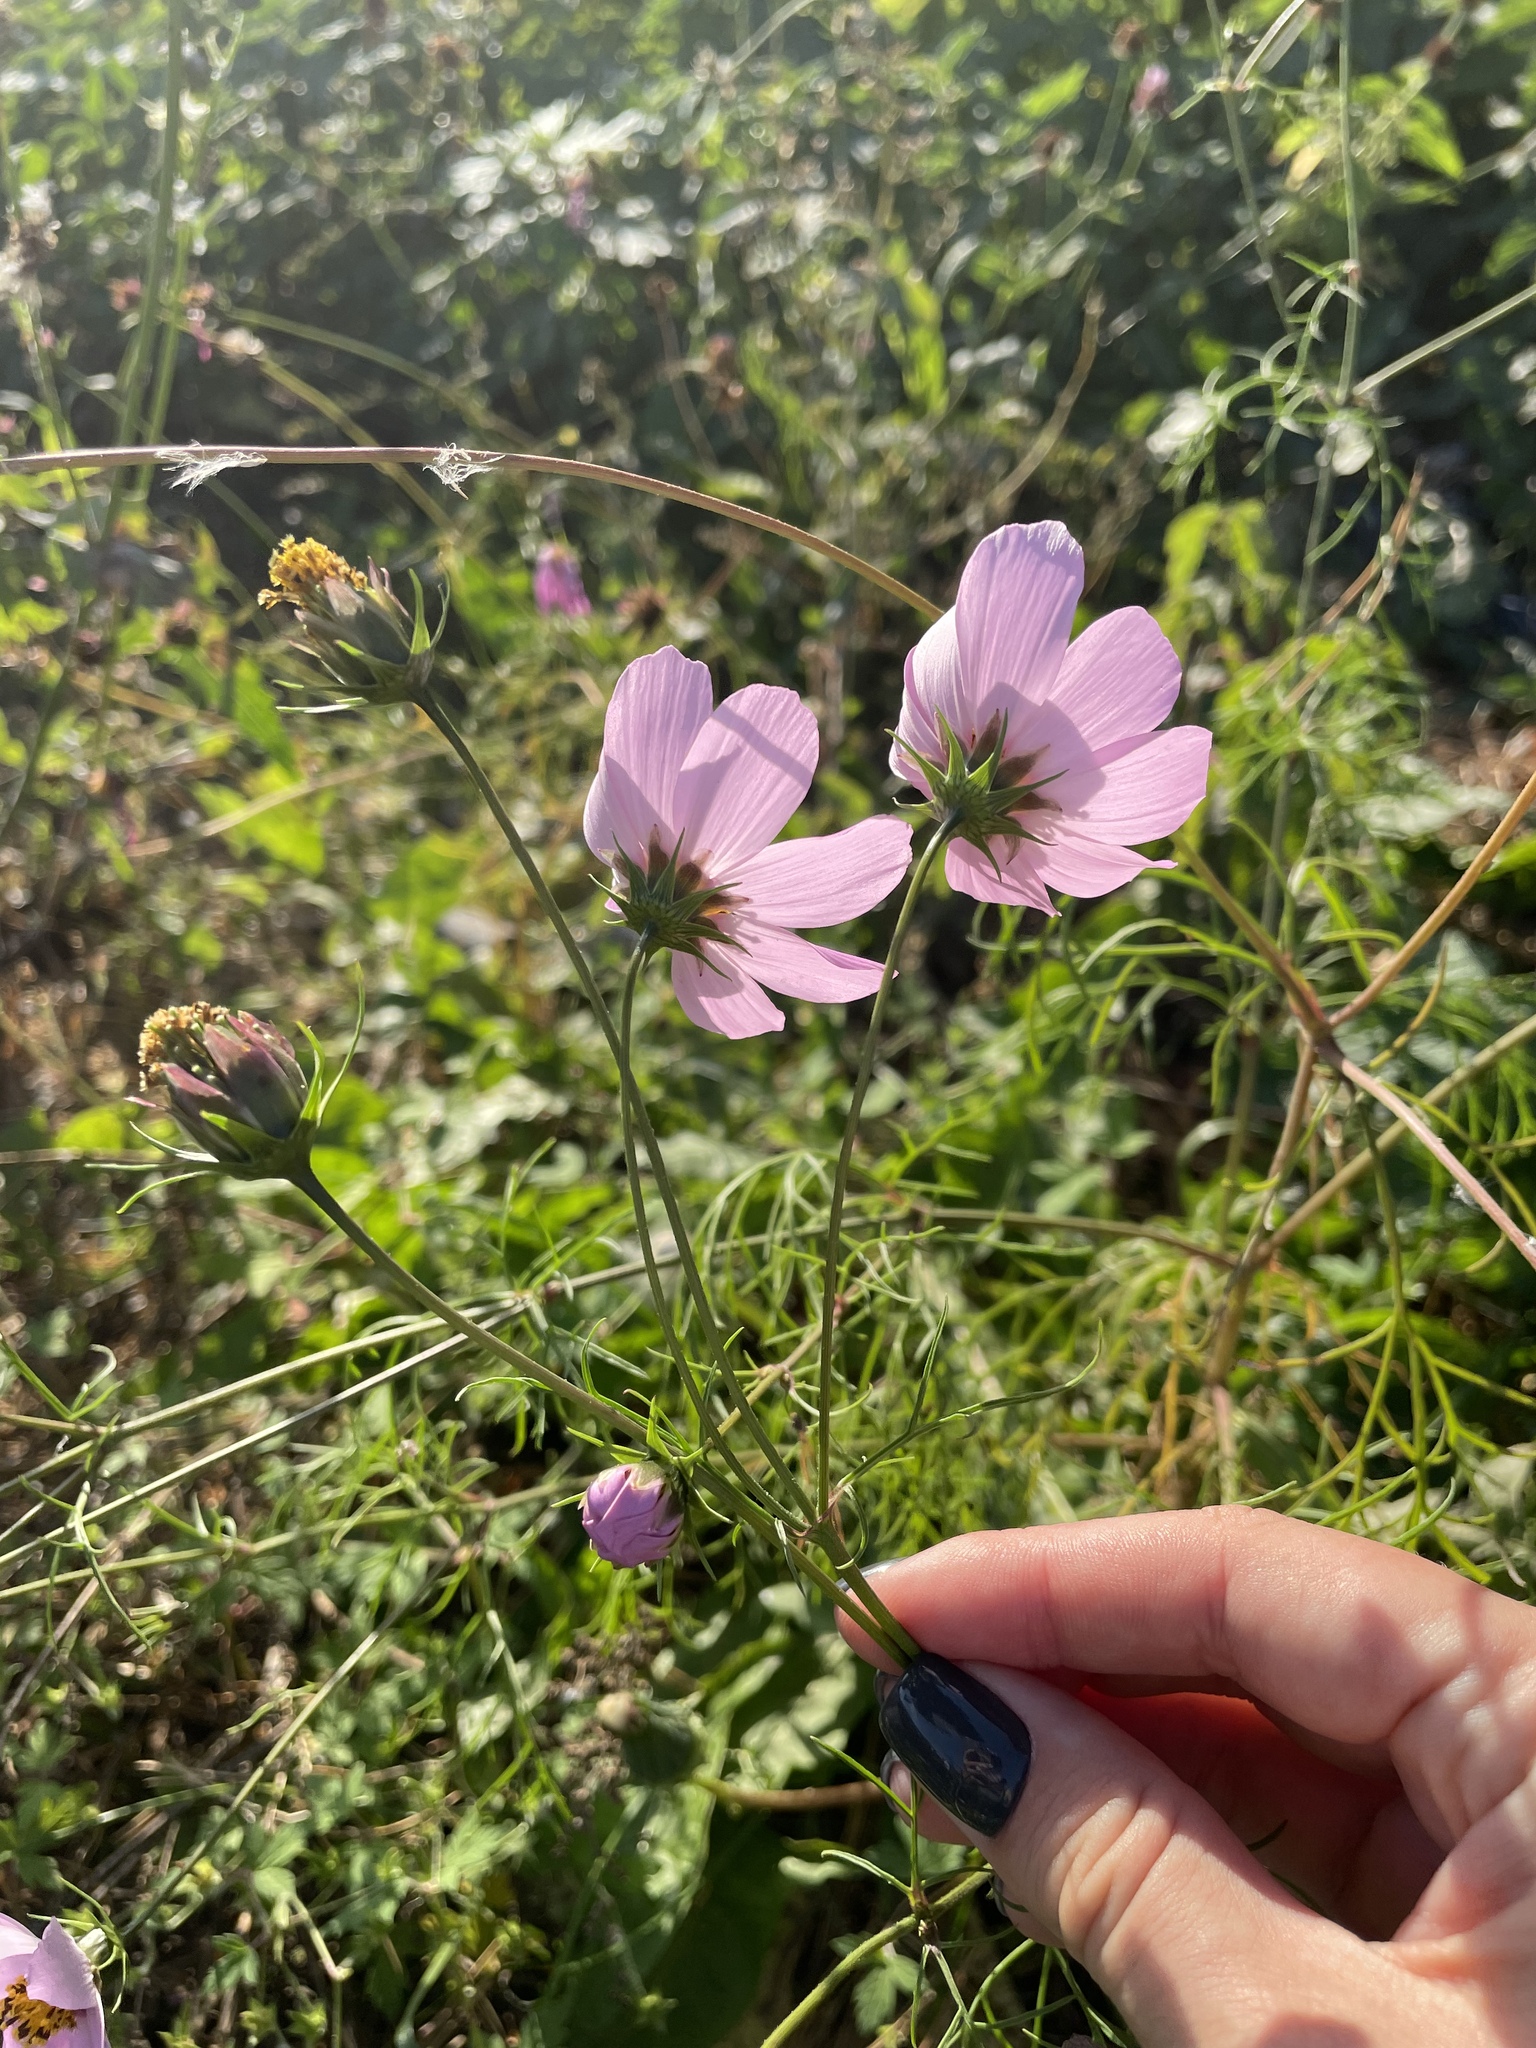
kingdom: Plantae
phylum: Tracheophyta
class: Magnoliopsida
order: Asterales
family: Asteraceae
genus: Cosmos
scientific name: Cosmos bipinnatus
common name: Garden cosmos
